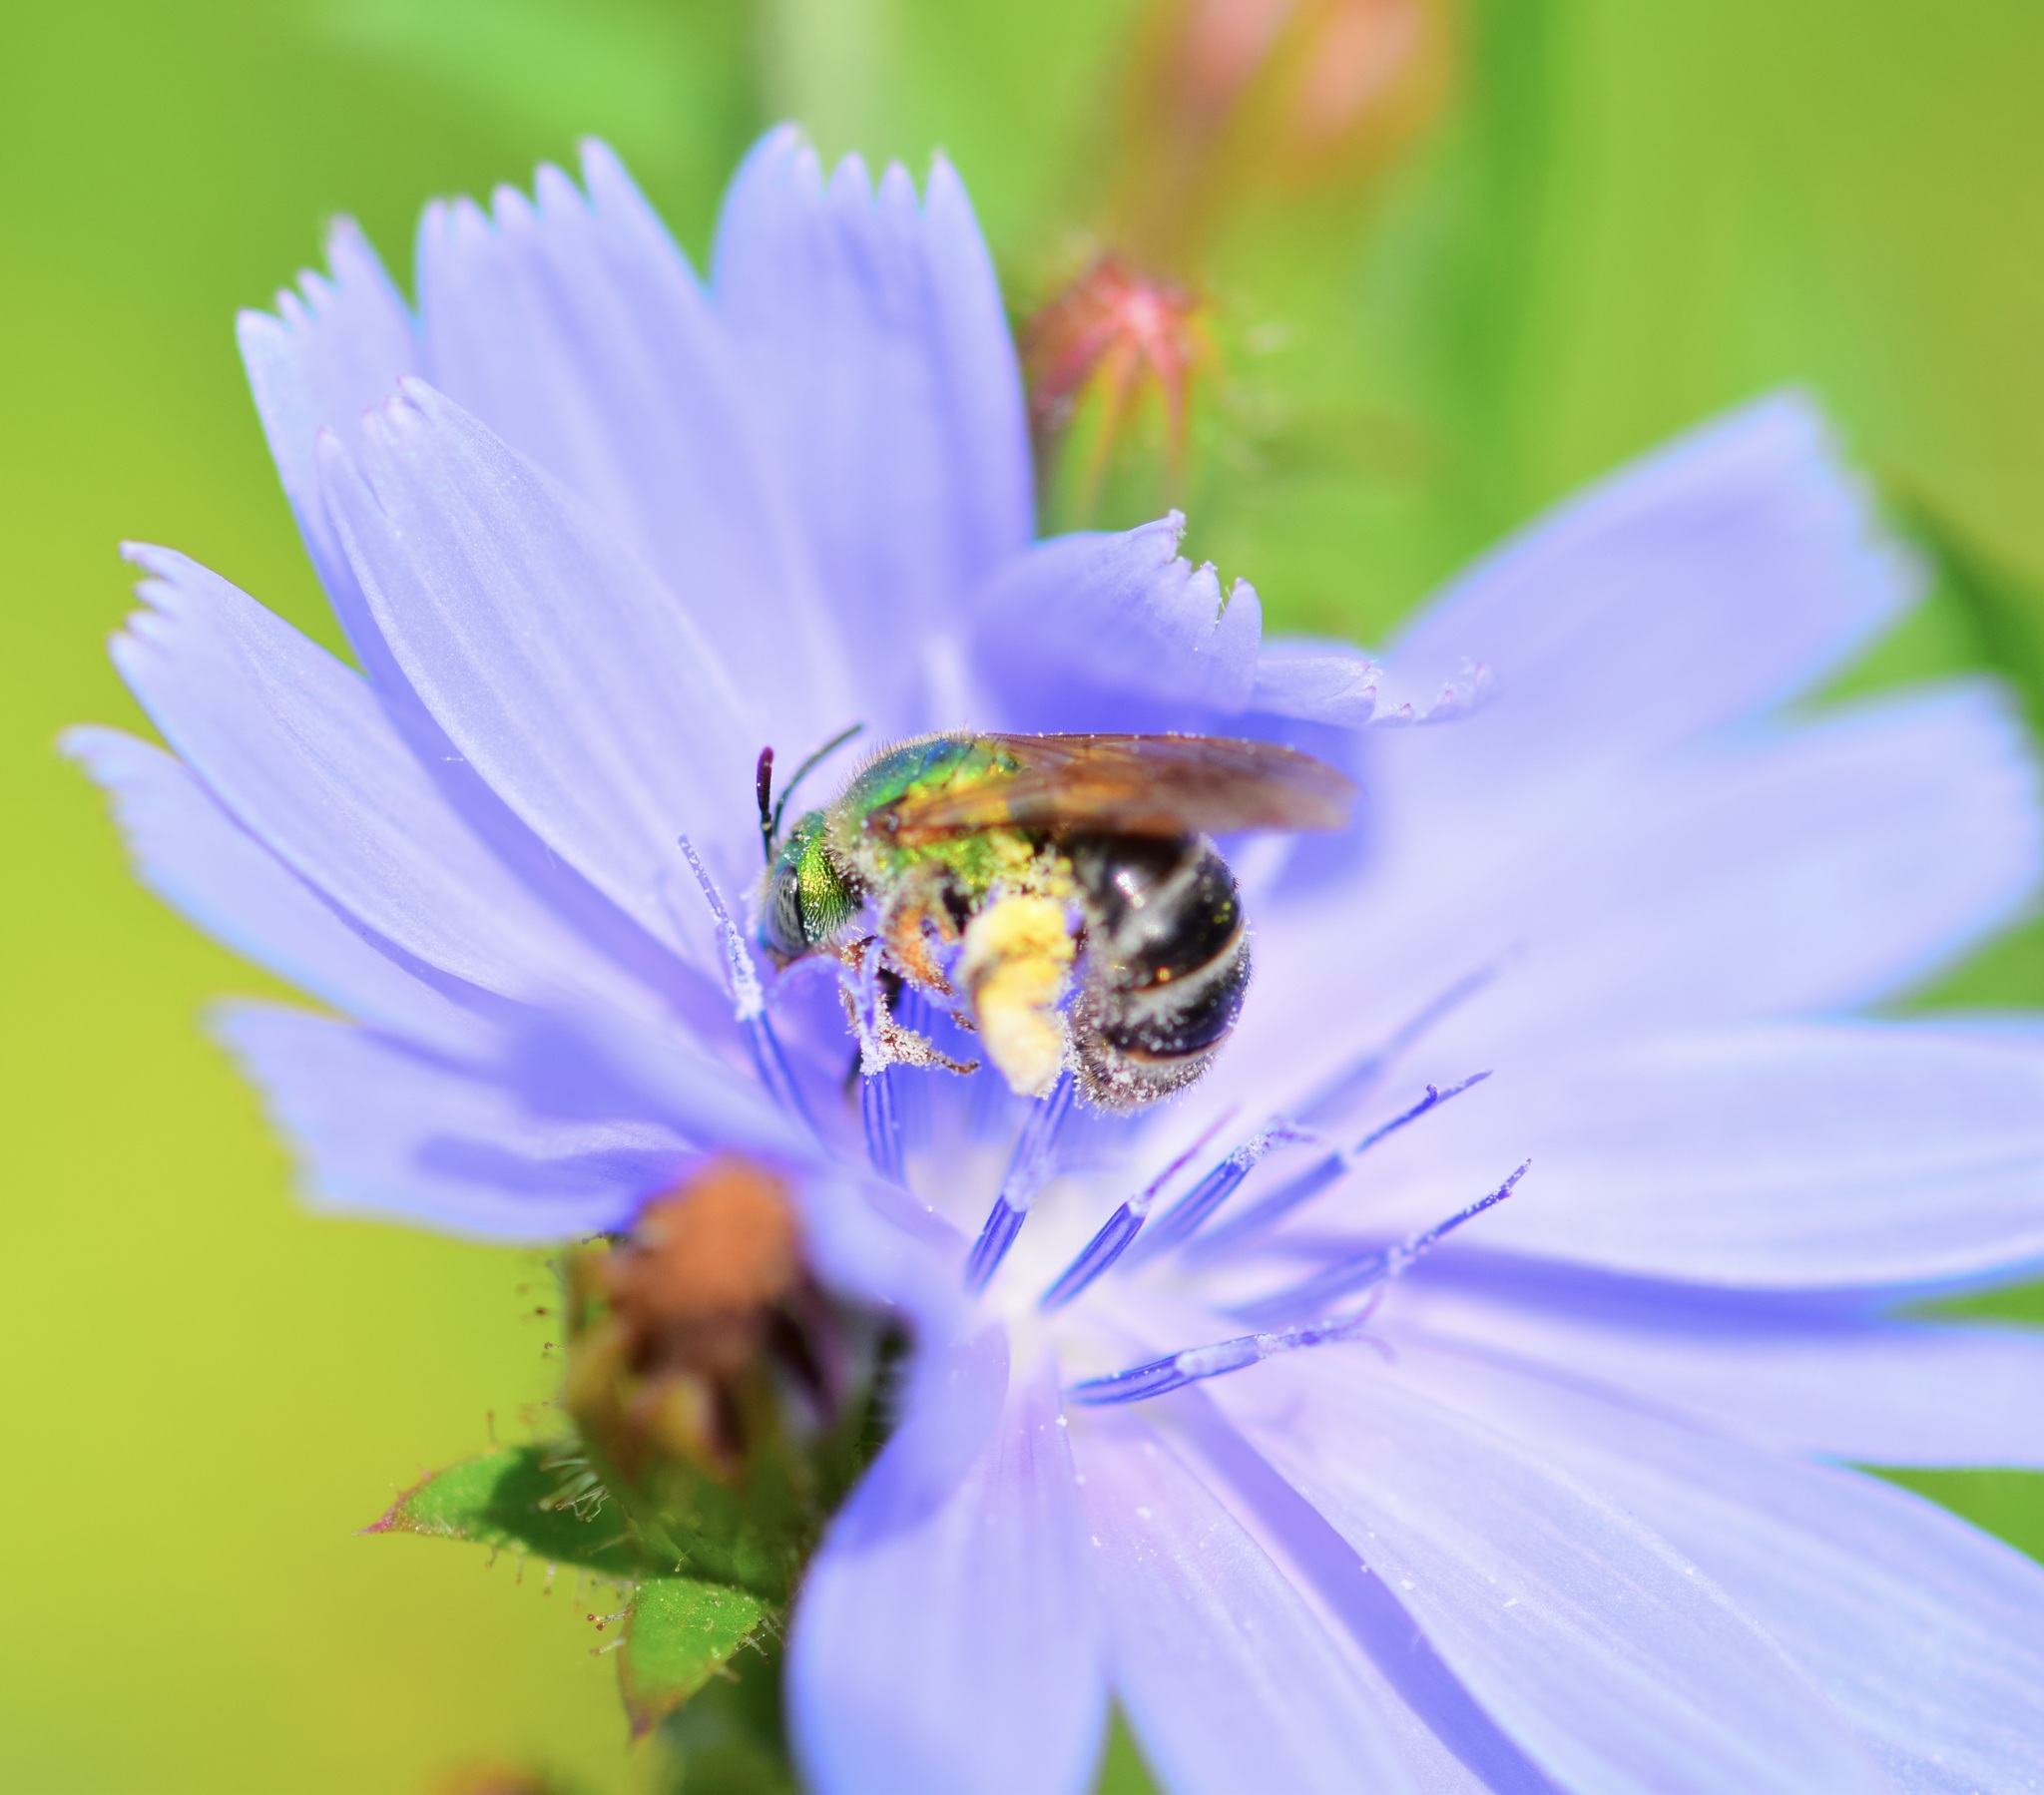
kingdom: Animalia
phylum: Arthropoda
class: Insecta
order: Hymenoptera
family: Halictidae
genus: Agapostemon
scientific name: Agapostemon virescens
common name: Bicolored striped sweat bee
